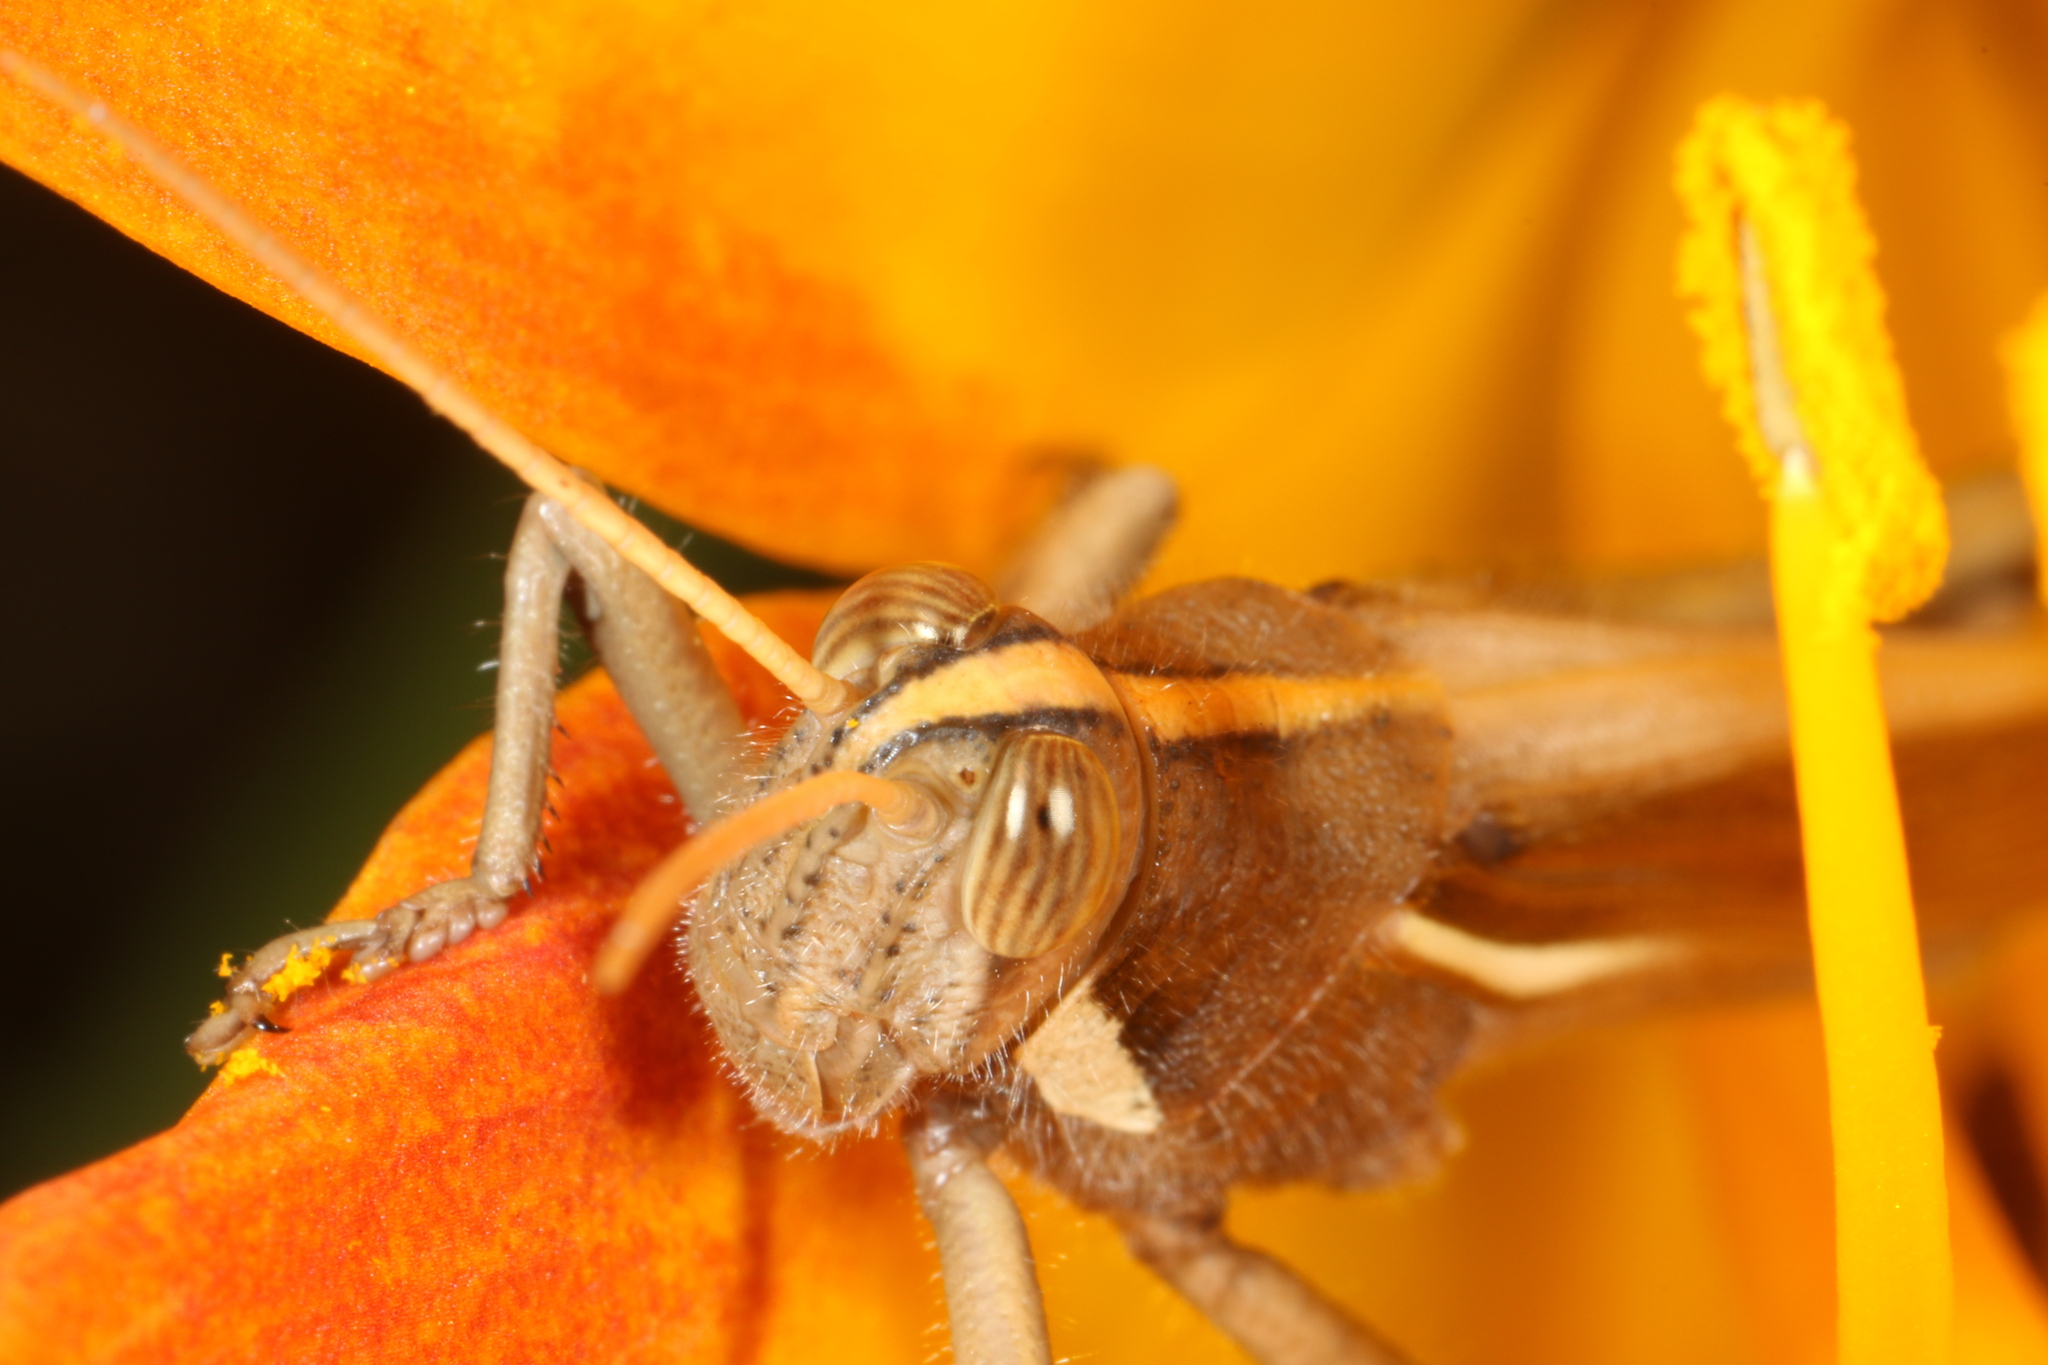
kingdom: Animalia
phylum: Arthropoda
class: Insecta
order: Orthoptera
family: Acrididae
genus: Schistocerca
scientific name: Schistocerca flavofasciata
